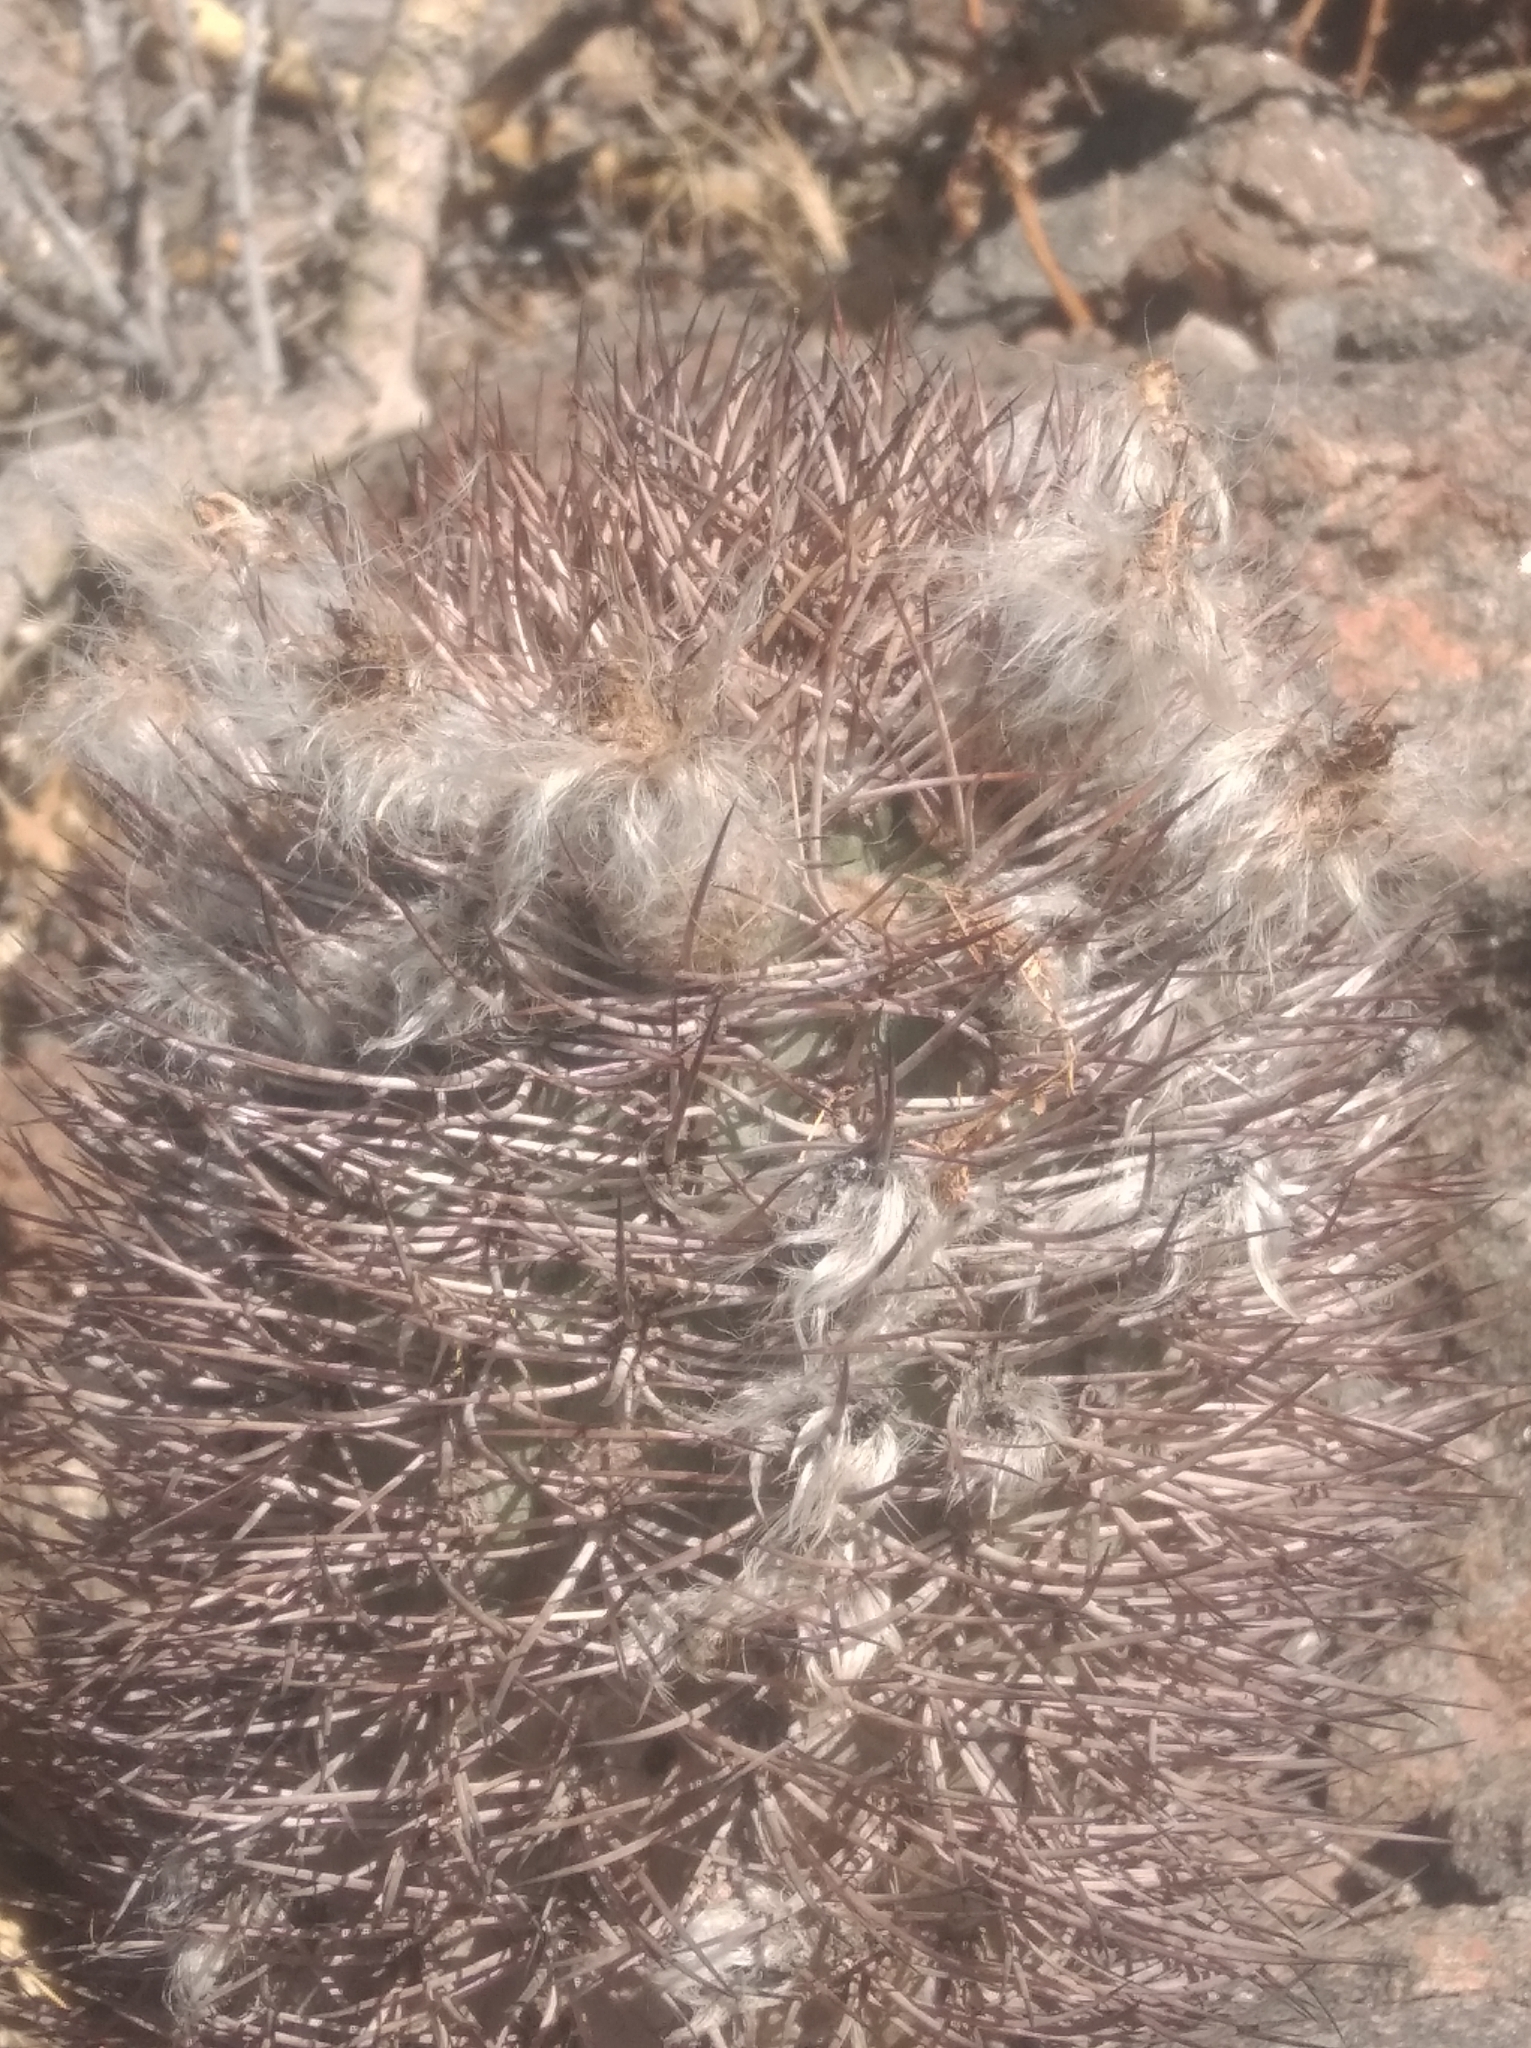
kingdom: Plantae
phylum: Tracheophyta
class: Magnoliopsida
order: Caryophyllales
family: Cactaceae
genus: Acanthocalycium
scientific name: Acanthocalycium thionanthum
